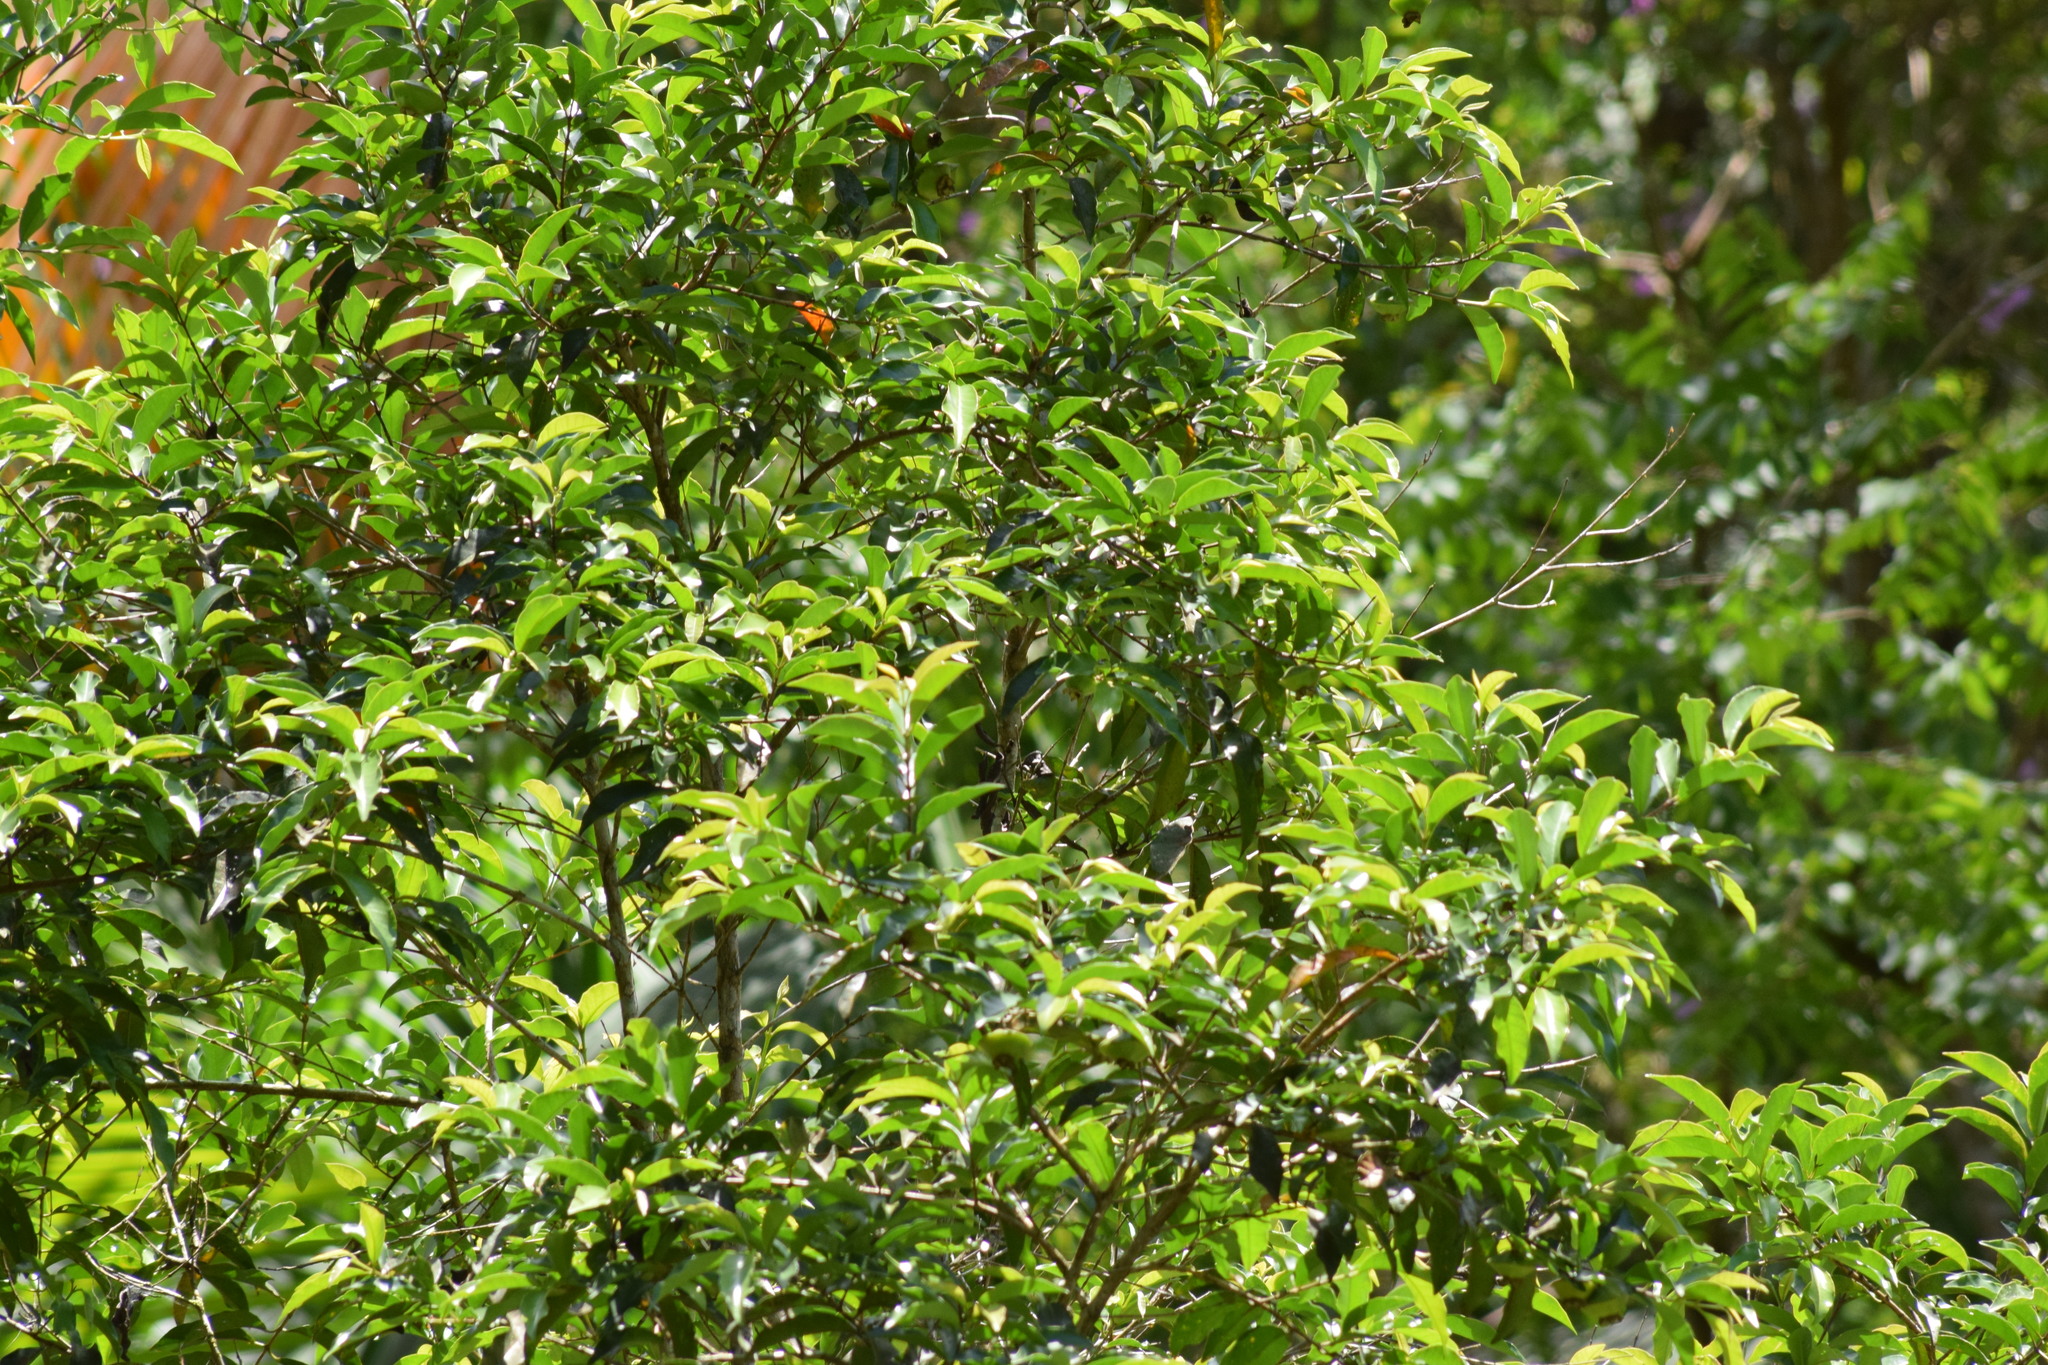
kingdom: Plantae
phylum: Tracheophyta
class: Magnoliopsida
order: Myrtales
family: Myrtaceae
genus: Campomanesia
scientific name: Campomanesia phaea
